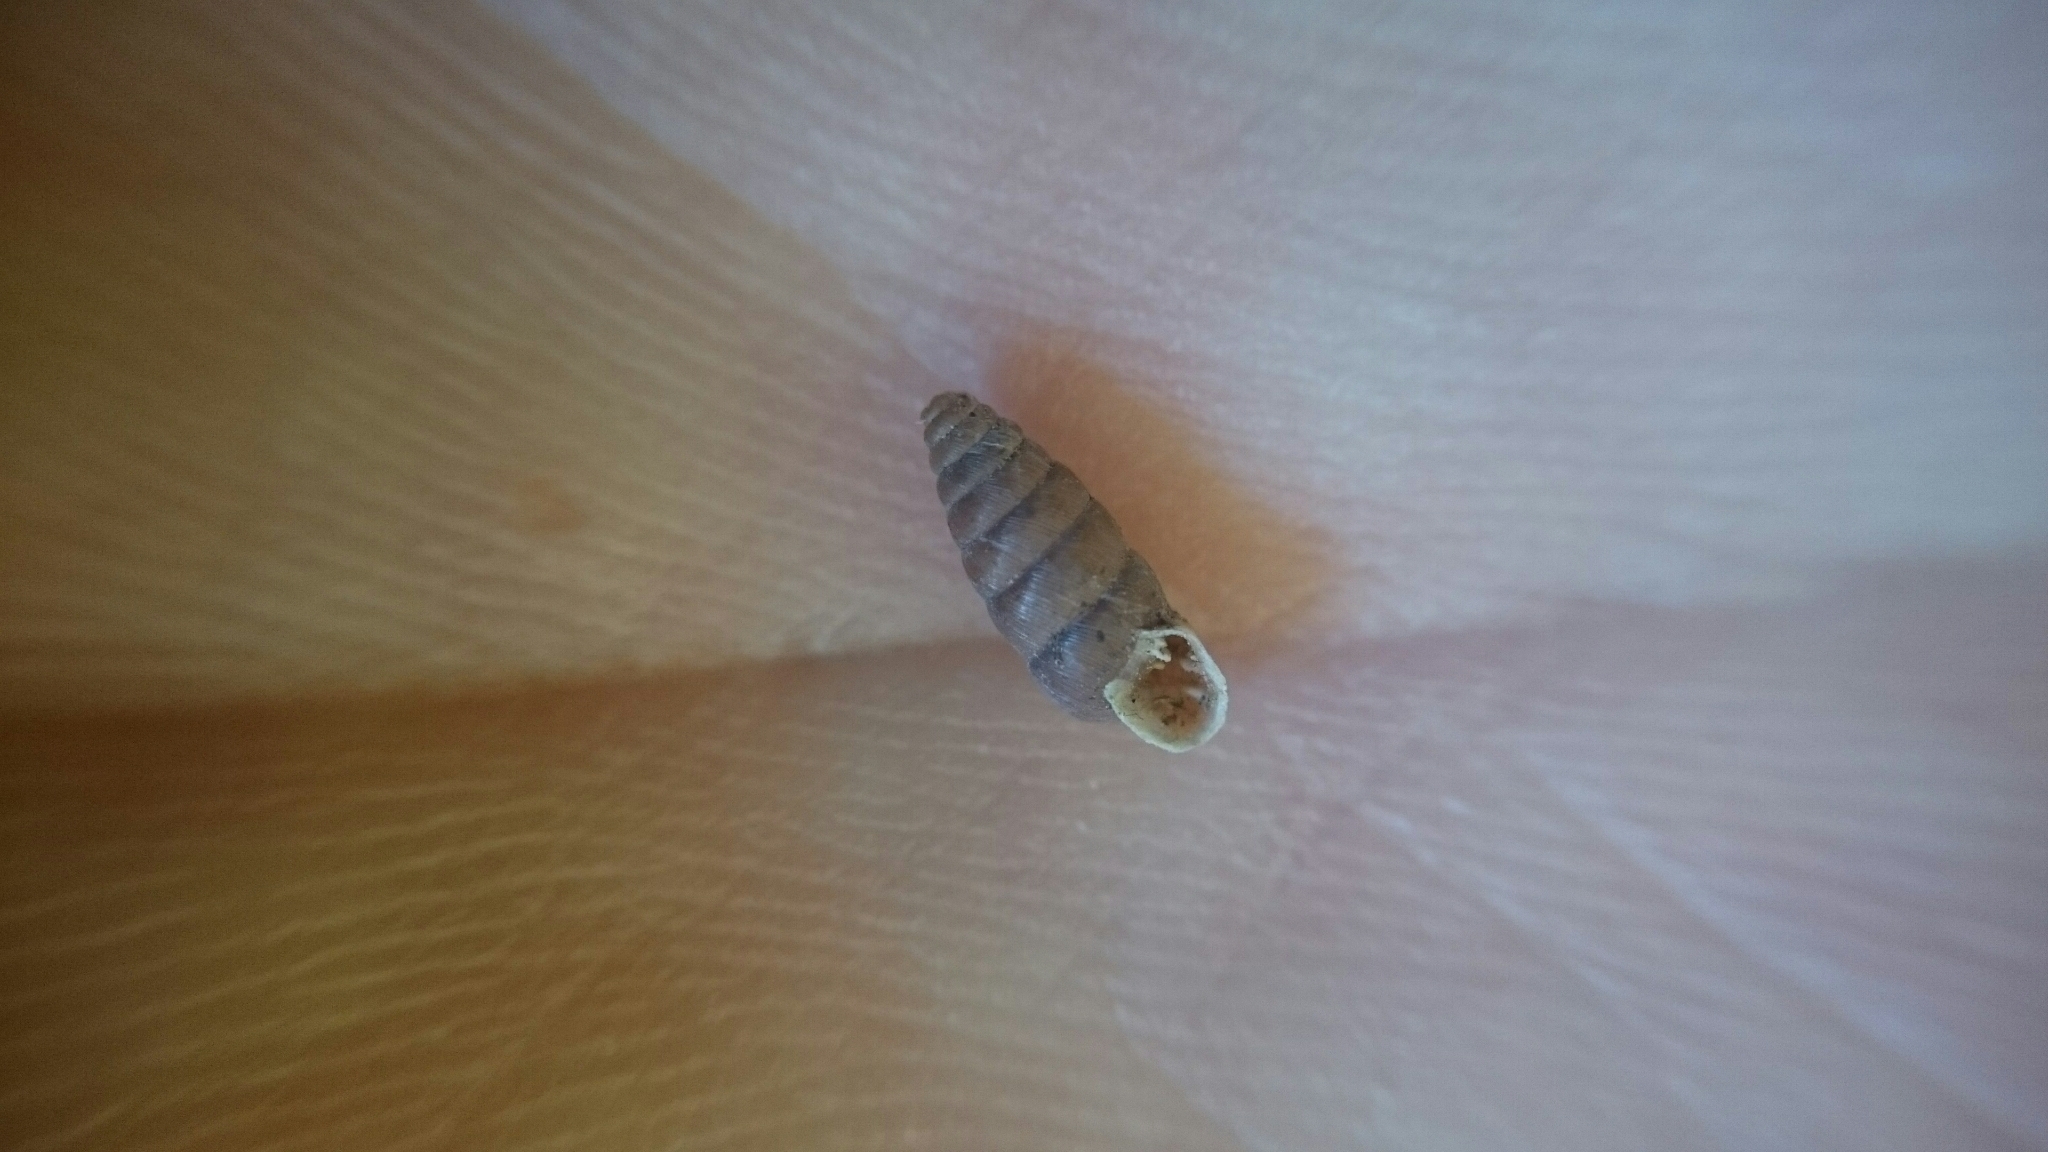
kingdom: Animalia
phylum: Mollusca
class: Gastropoda
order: Stylommatophora
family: Chondrinidae
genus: Abida
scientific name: Abida secale
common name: Large chrysalis snail
